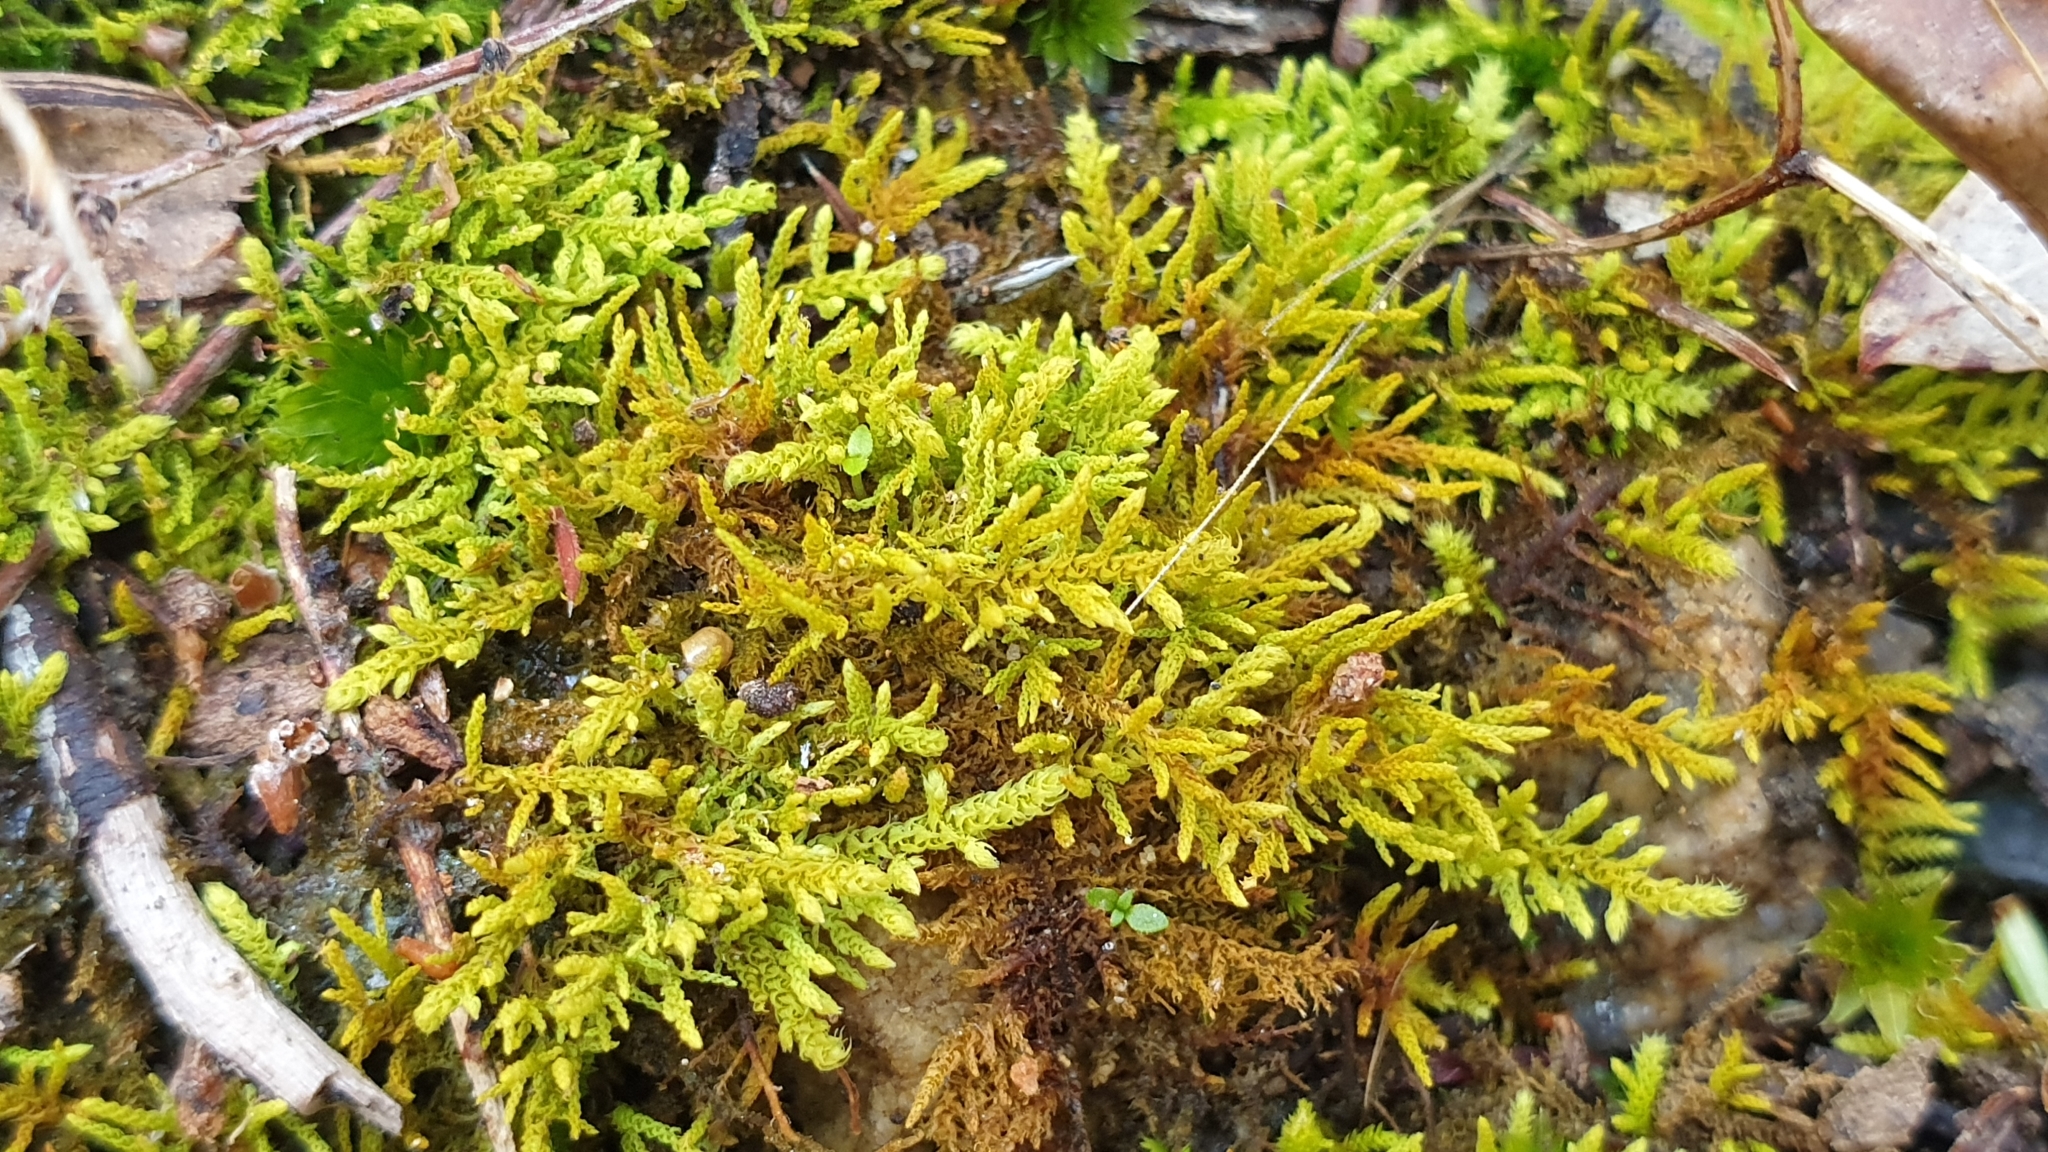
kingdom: Plantae
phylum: Bryophyta
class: Bryopsida
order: Hypnales
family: Thuidiaceae
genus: Thuidiopsis
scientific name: Thuidiopsis sparsa
